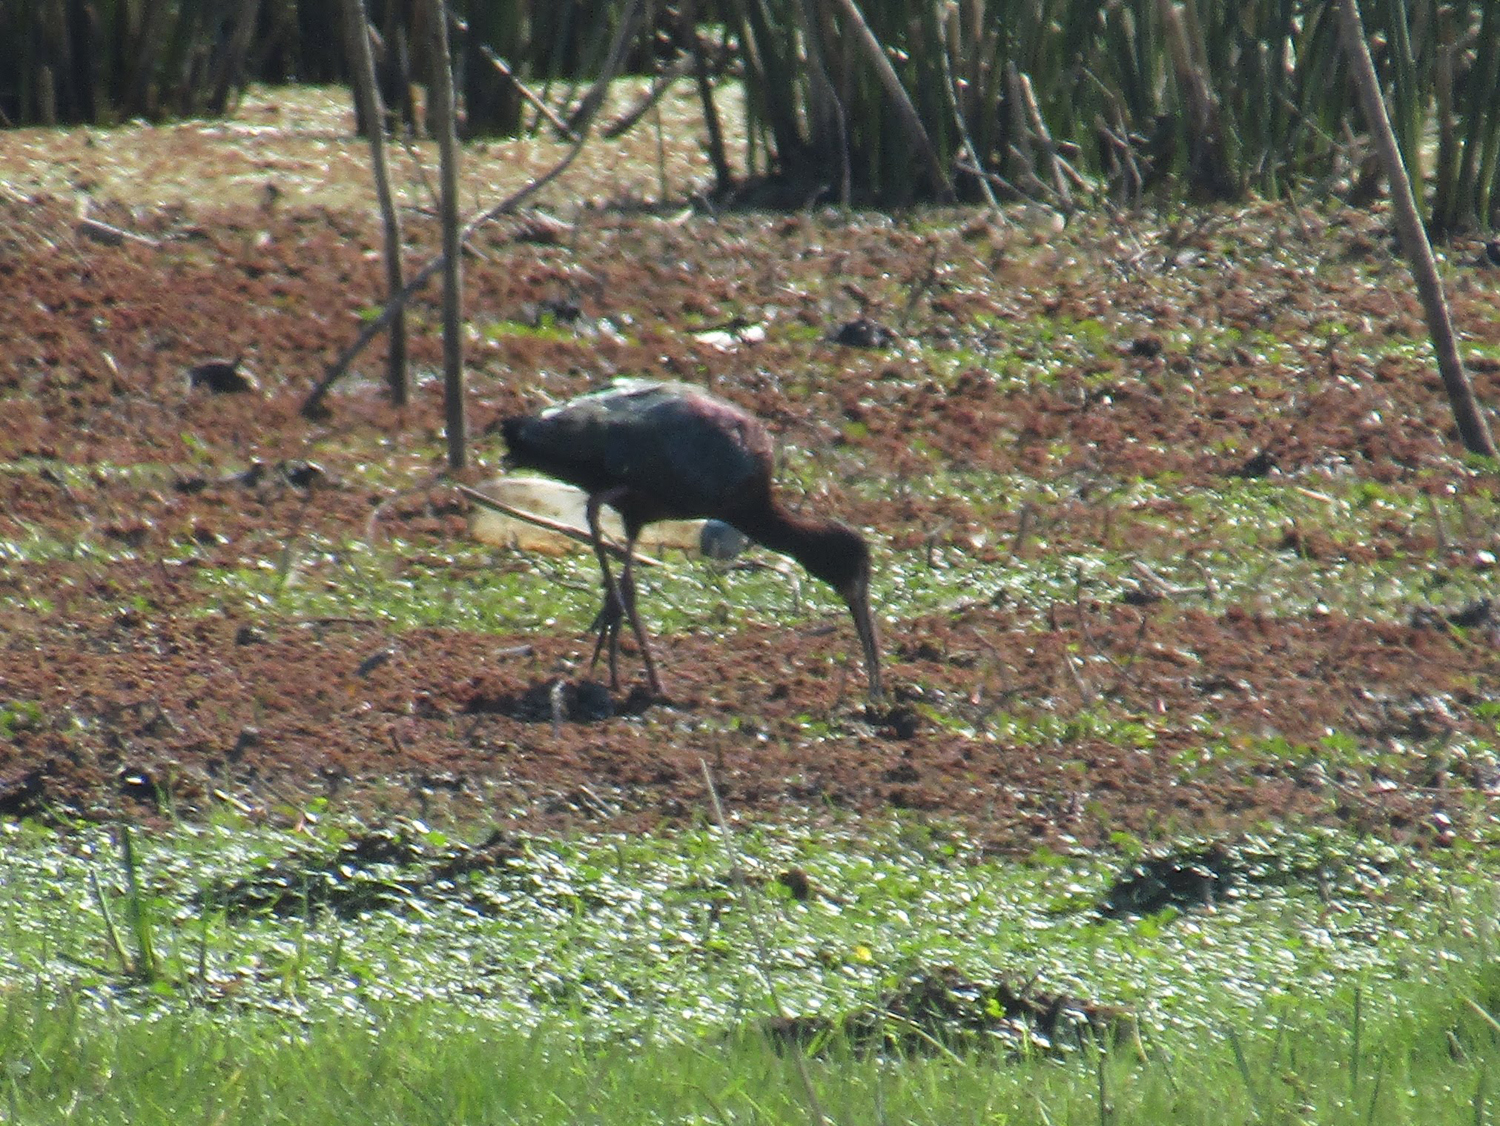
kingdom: Animalia
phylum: Chordata
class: Aves
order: Pelecaniformes
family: Threskiornithidae
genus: Plegadis
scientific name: Plegadis chihi
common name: White-faced ibis
